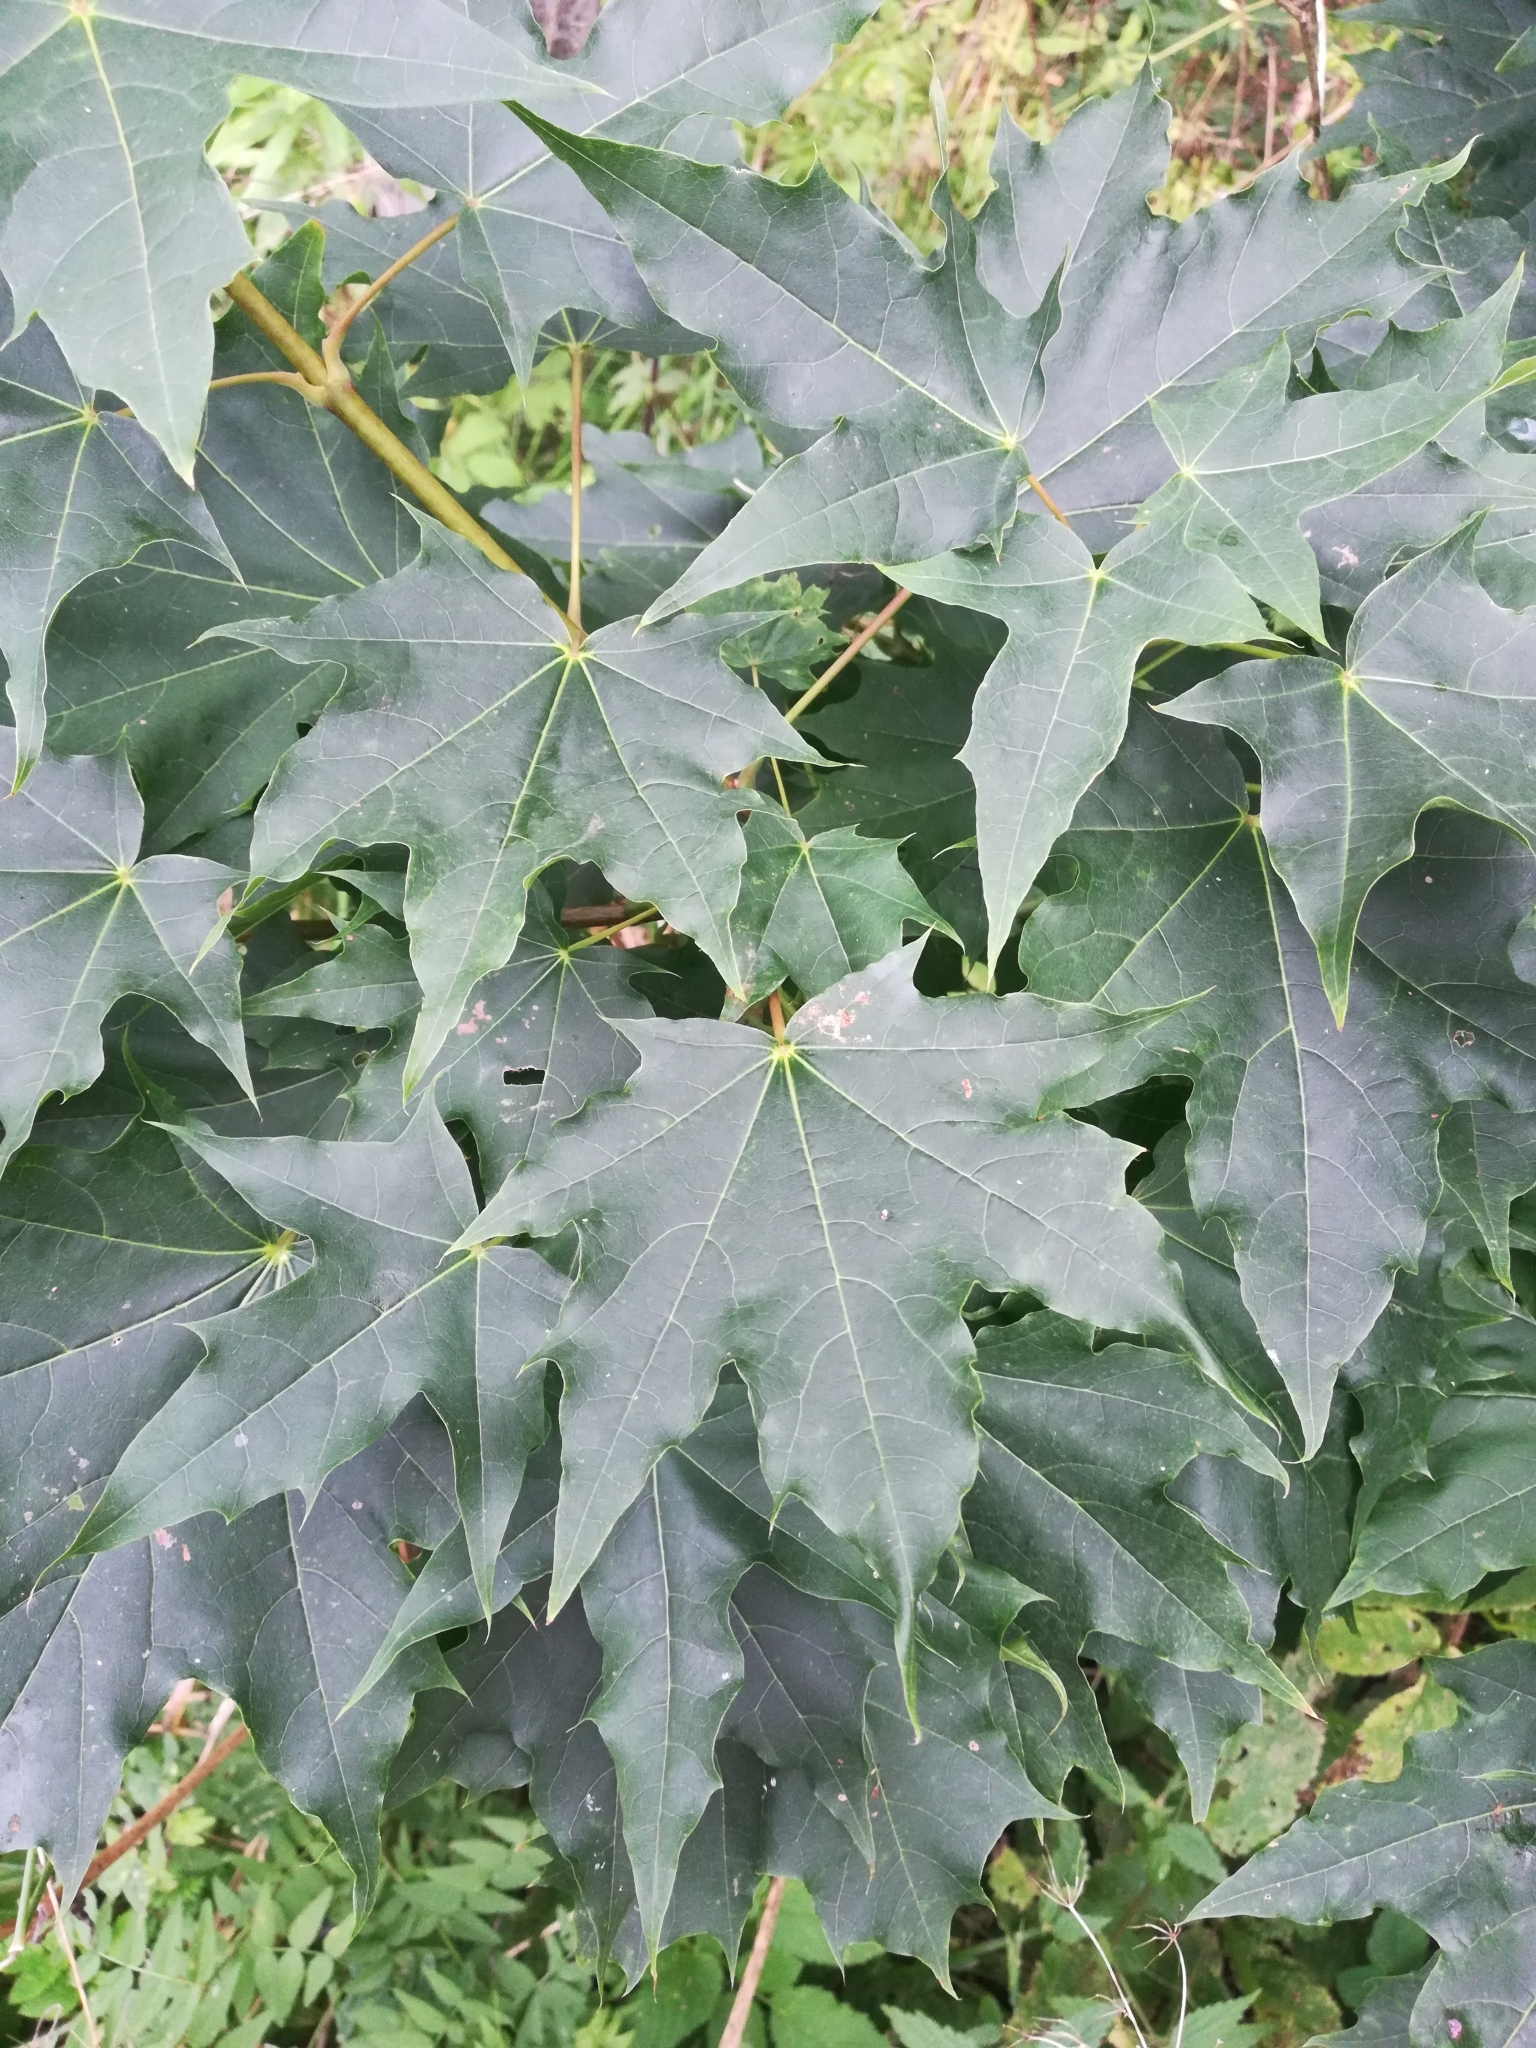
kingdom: Plantae
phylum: Tracheophyta
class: Magnoliopsida
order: Sapindales
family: Sapindaceae
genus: Acer
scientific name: Acer platanoides
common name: Norway maple
